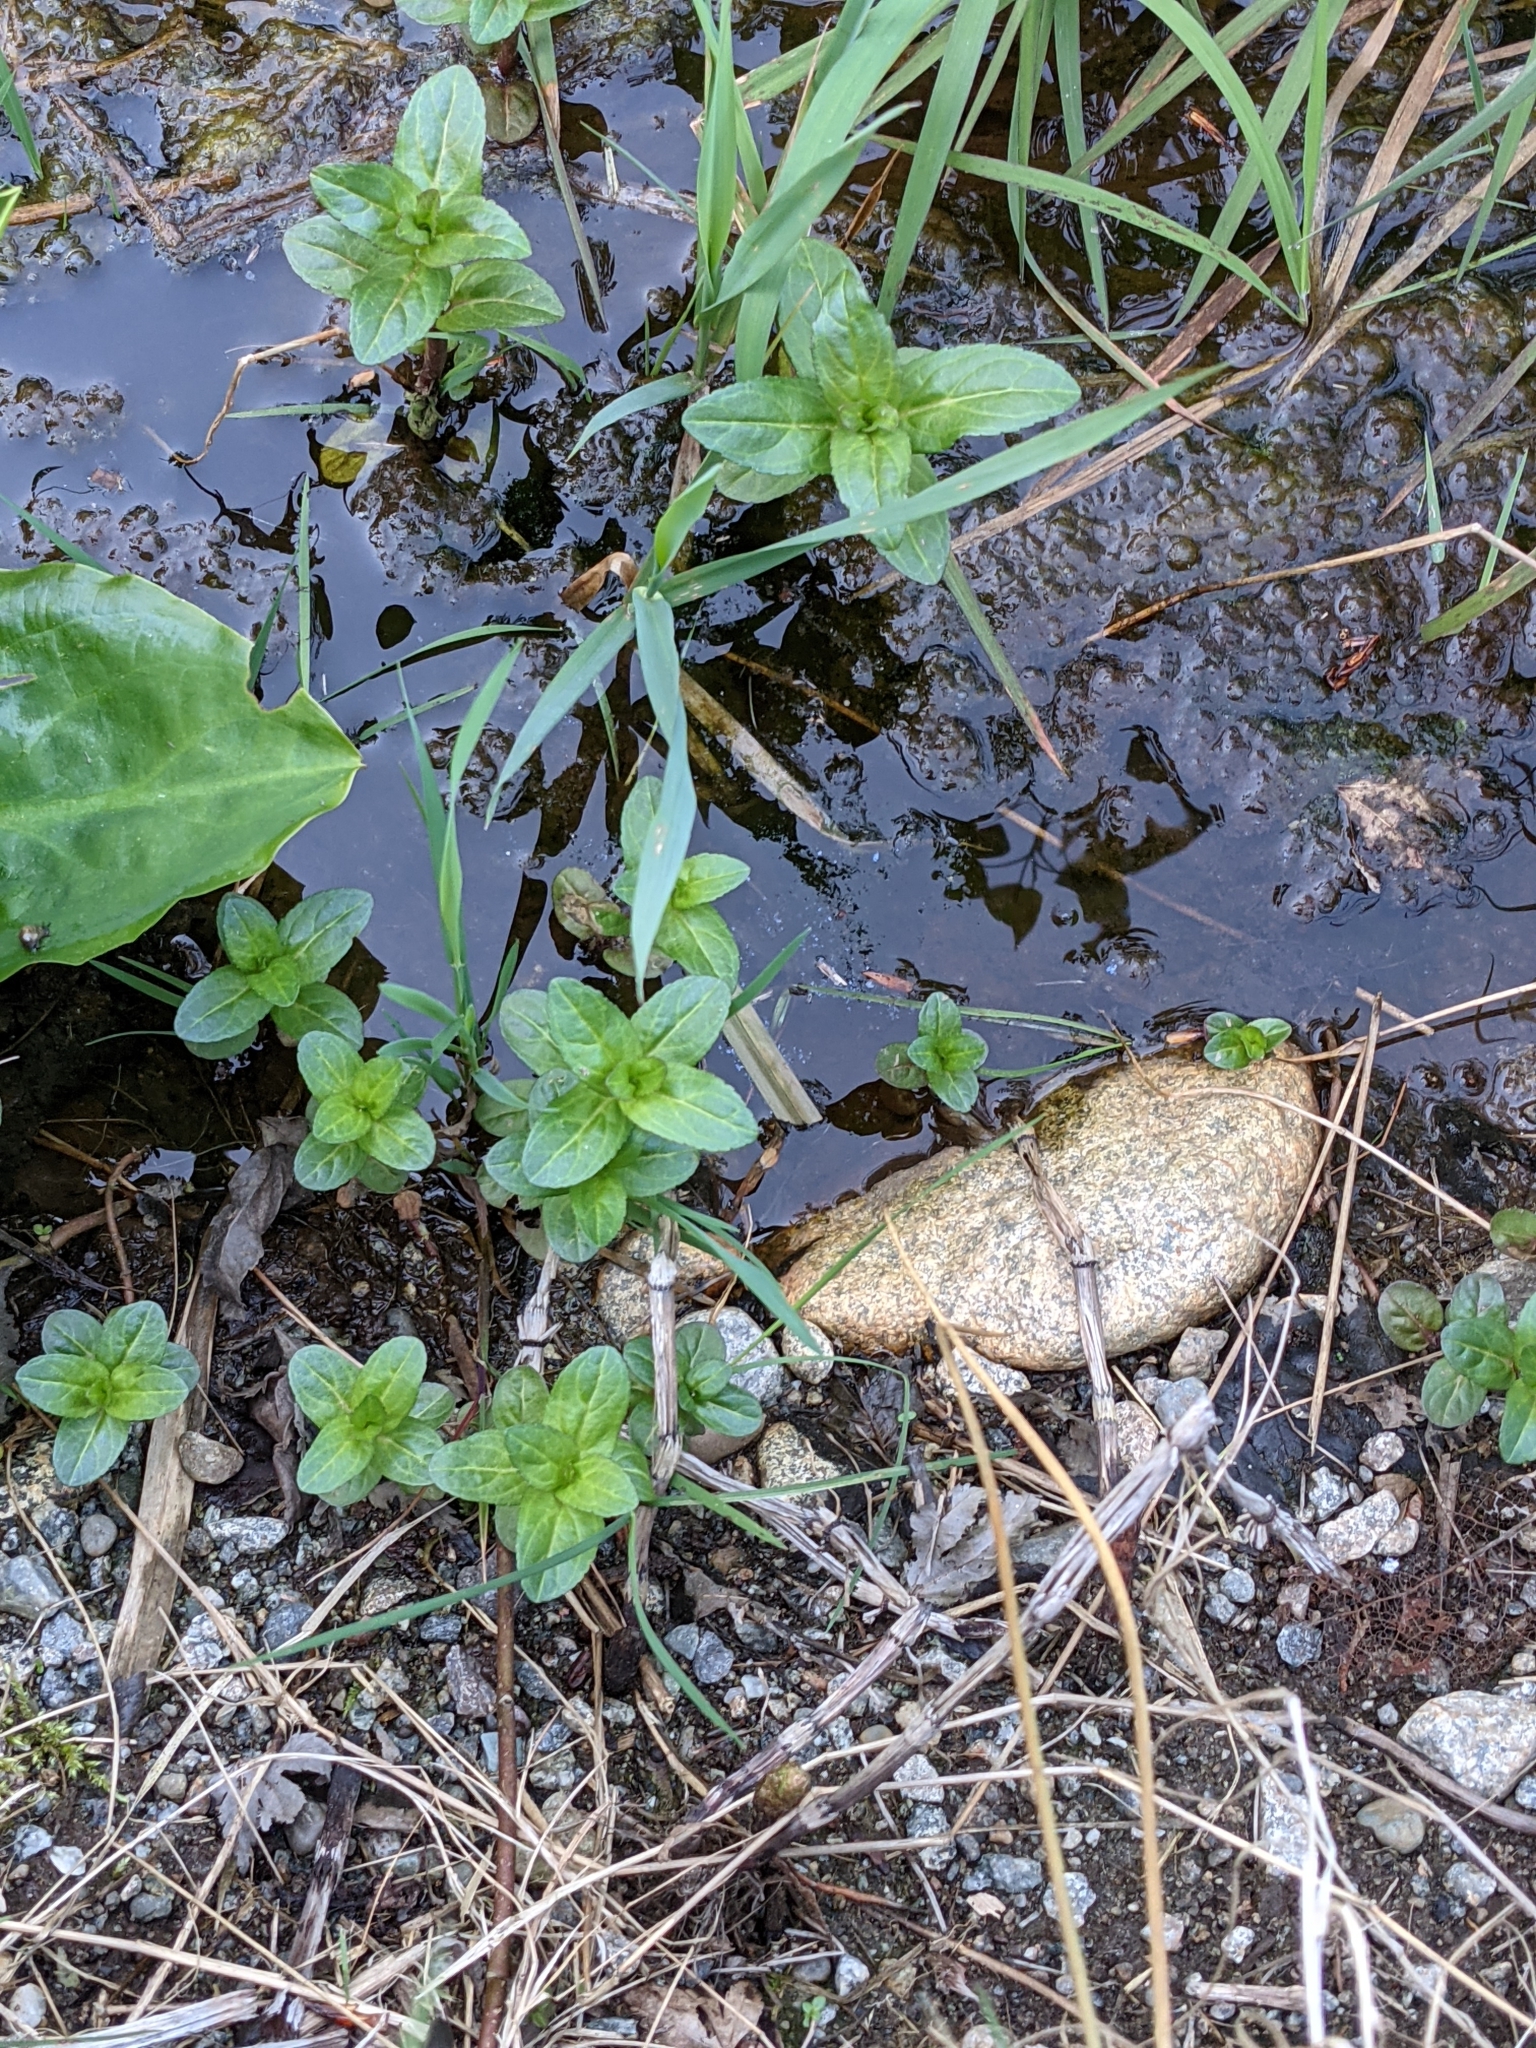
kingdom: Plantae
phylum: Tracheophyta
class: Magnoliopsida
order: Lamiales
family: Plantaginaceae
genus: Veronica
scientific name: Veronica americana
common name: American brooklime
